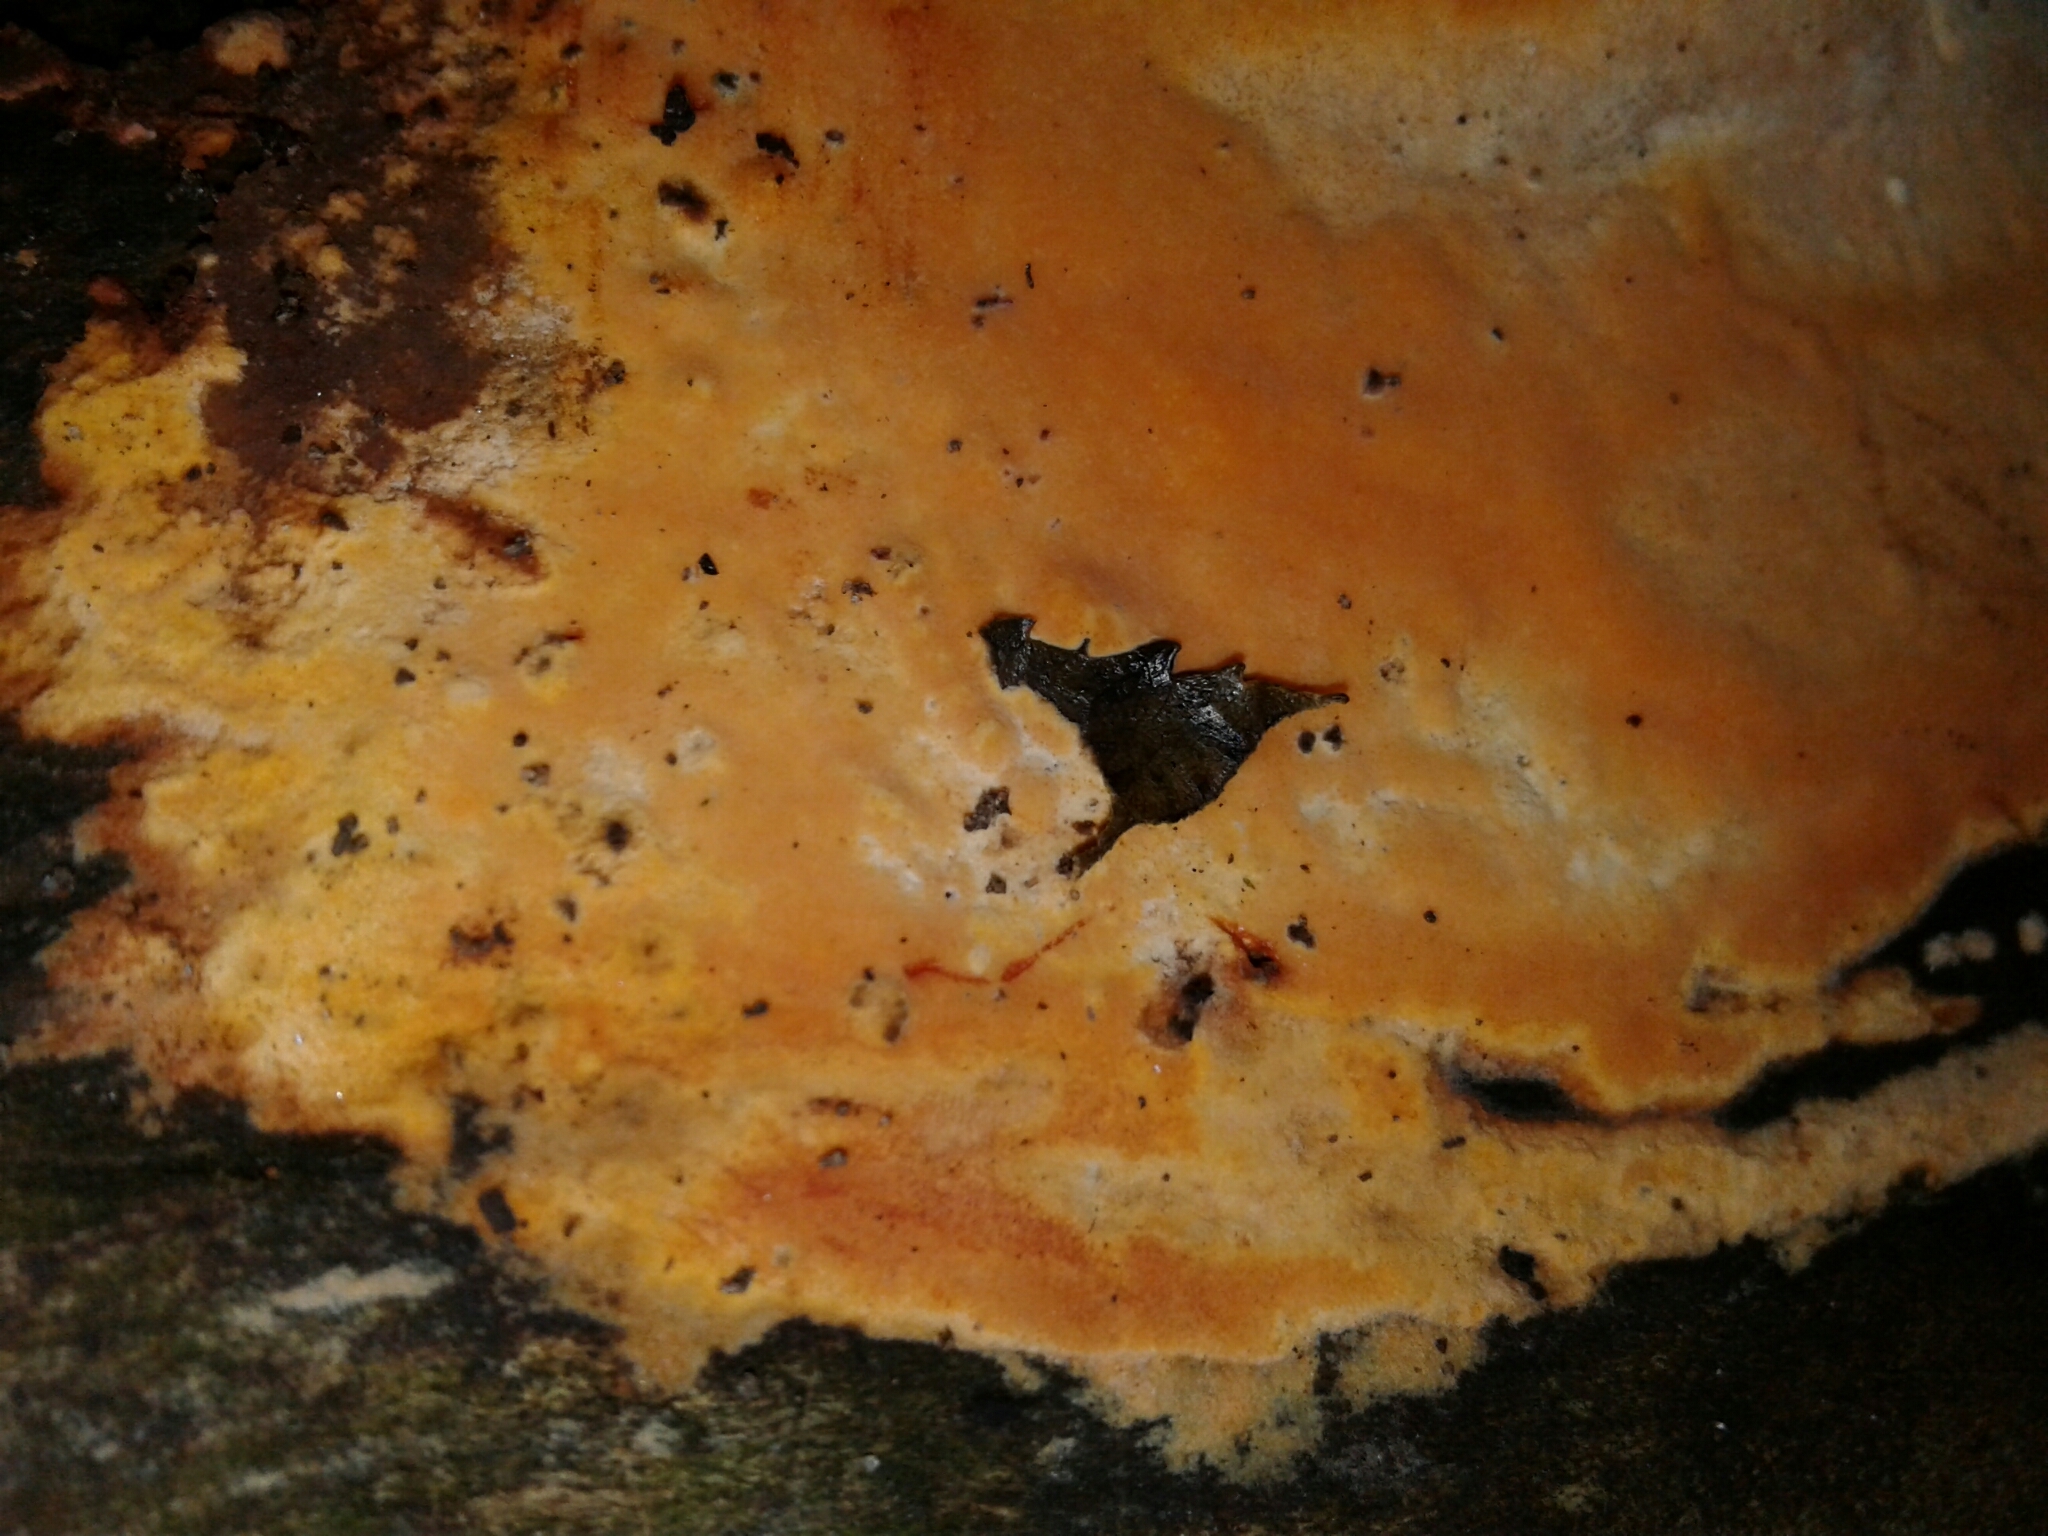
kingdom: Fungi
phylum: Basidiomycota
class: Agaricomycetes
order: Polyporales
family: Irpicaceae
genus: Ceriporia
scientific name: Ceriporia spissa
